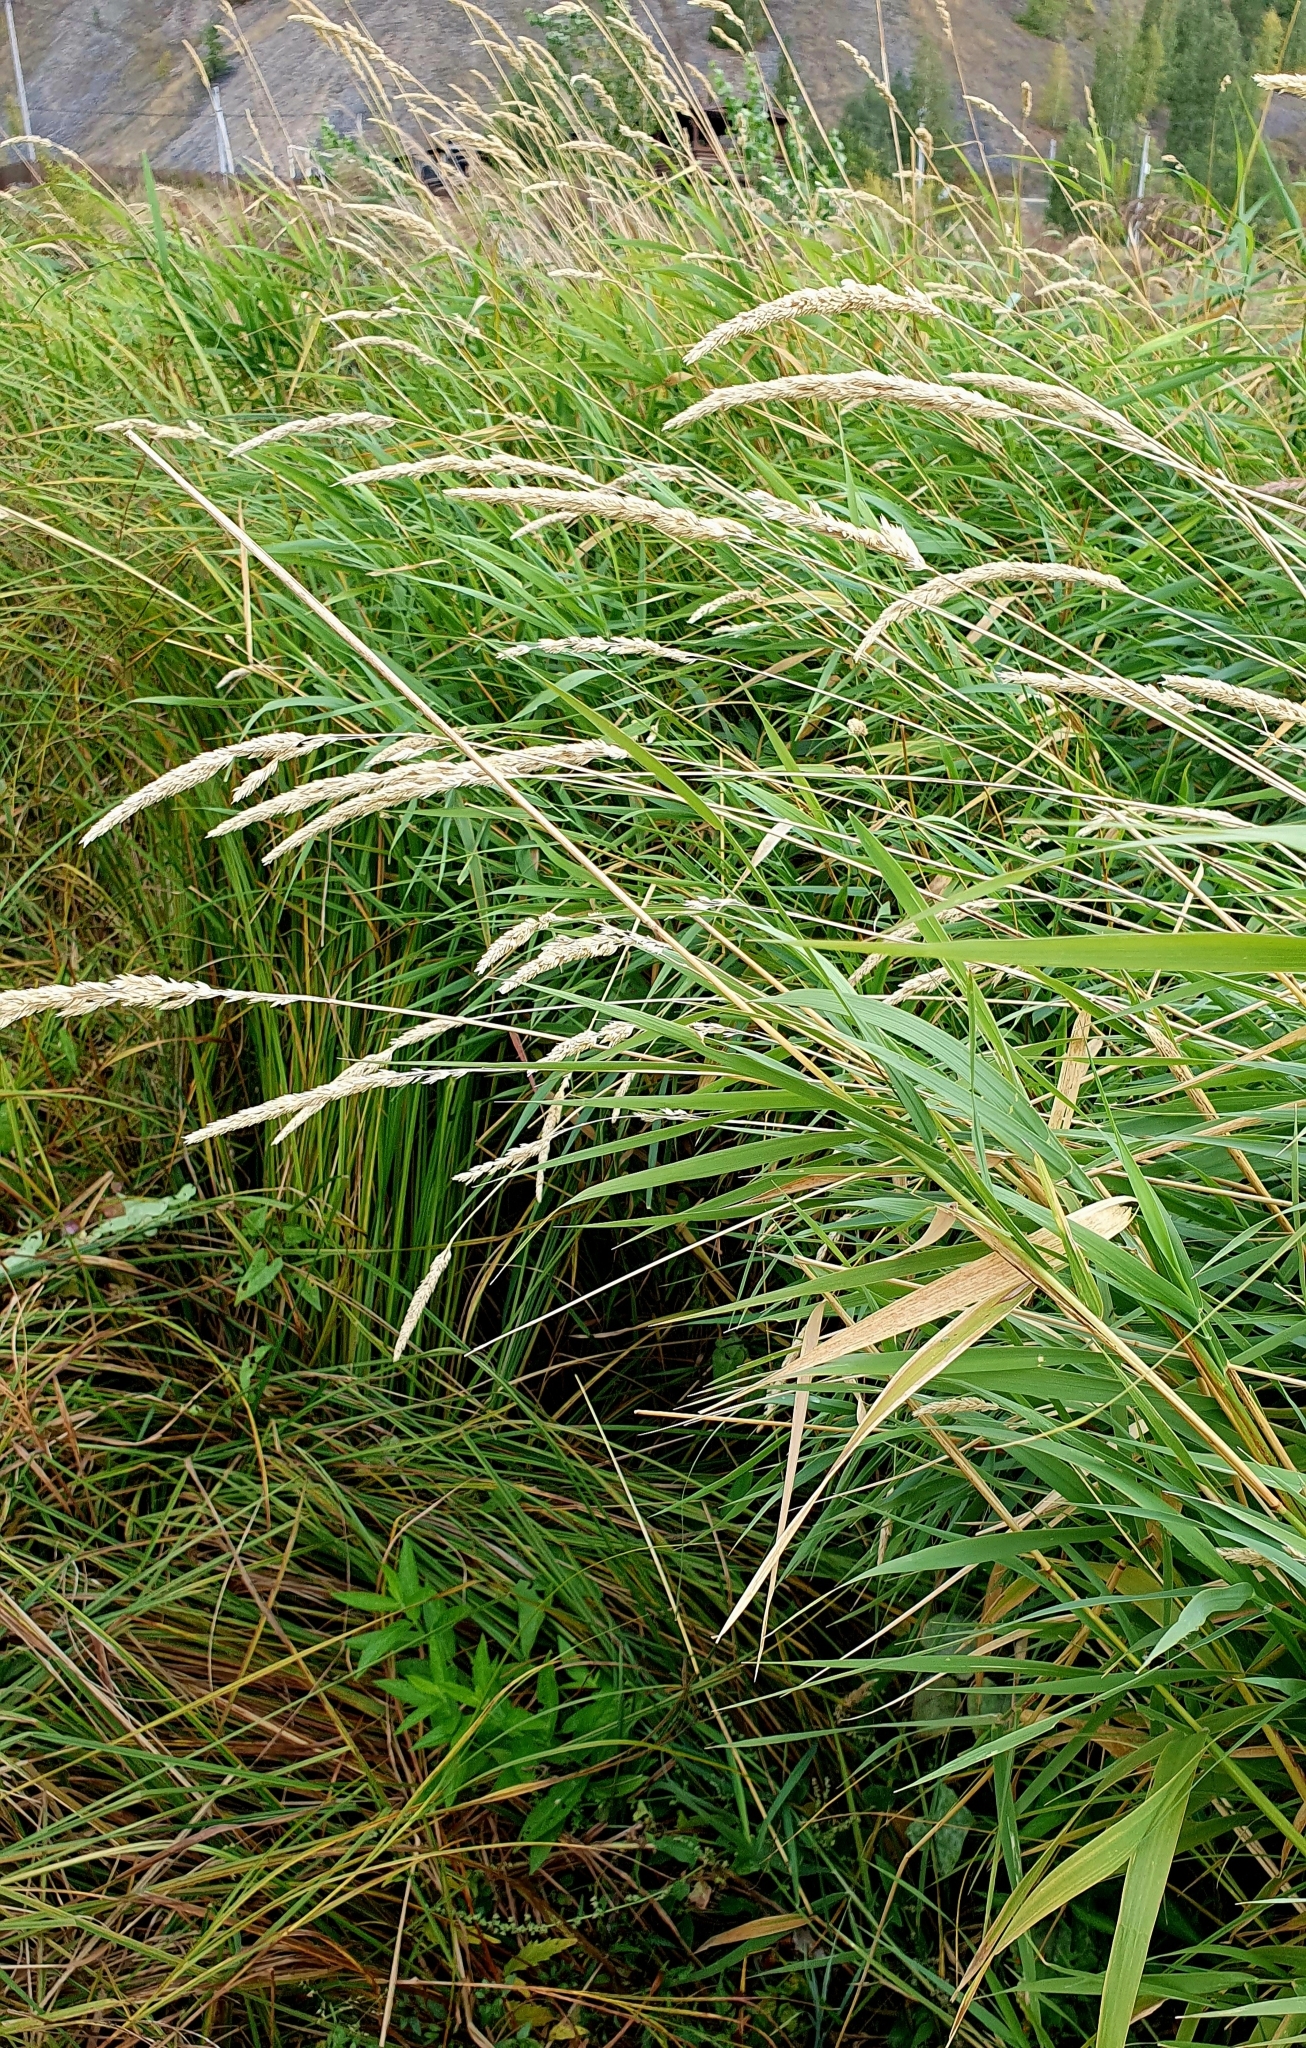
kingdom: Plantae
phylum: Tracheophyta
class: Liliopsida
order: Poales
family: Poaceae
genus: Phalaris
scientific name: Phalaris arundinacea
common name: Reed canary-grass
